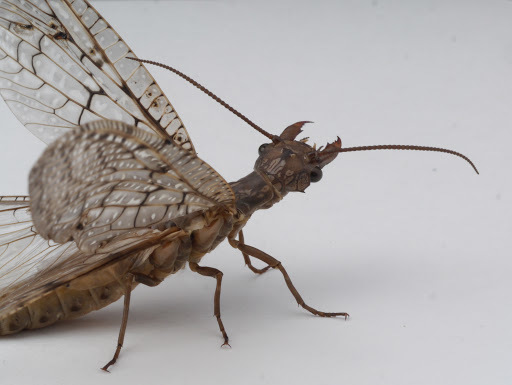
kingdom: Animalia
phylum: Arthropoda
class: Insecta
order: Megaloptera
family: Corydalidae
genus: Corydalus
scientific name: Corydalus cornutus
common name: Dobsonfly
